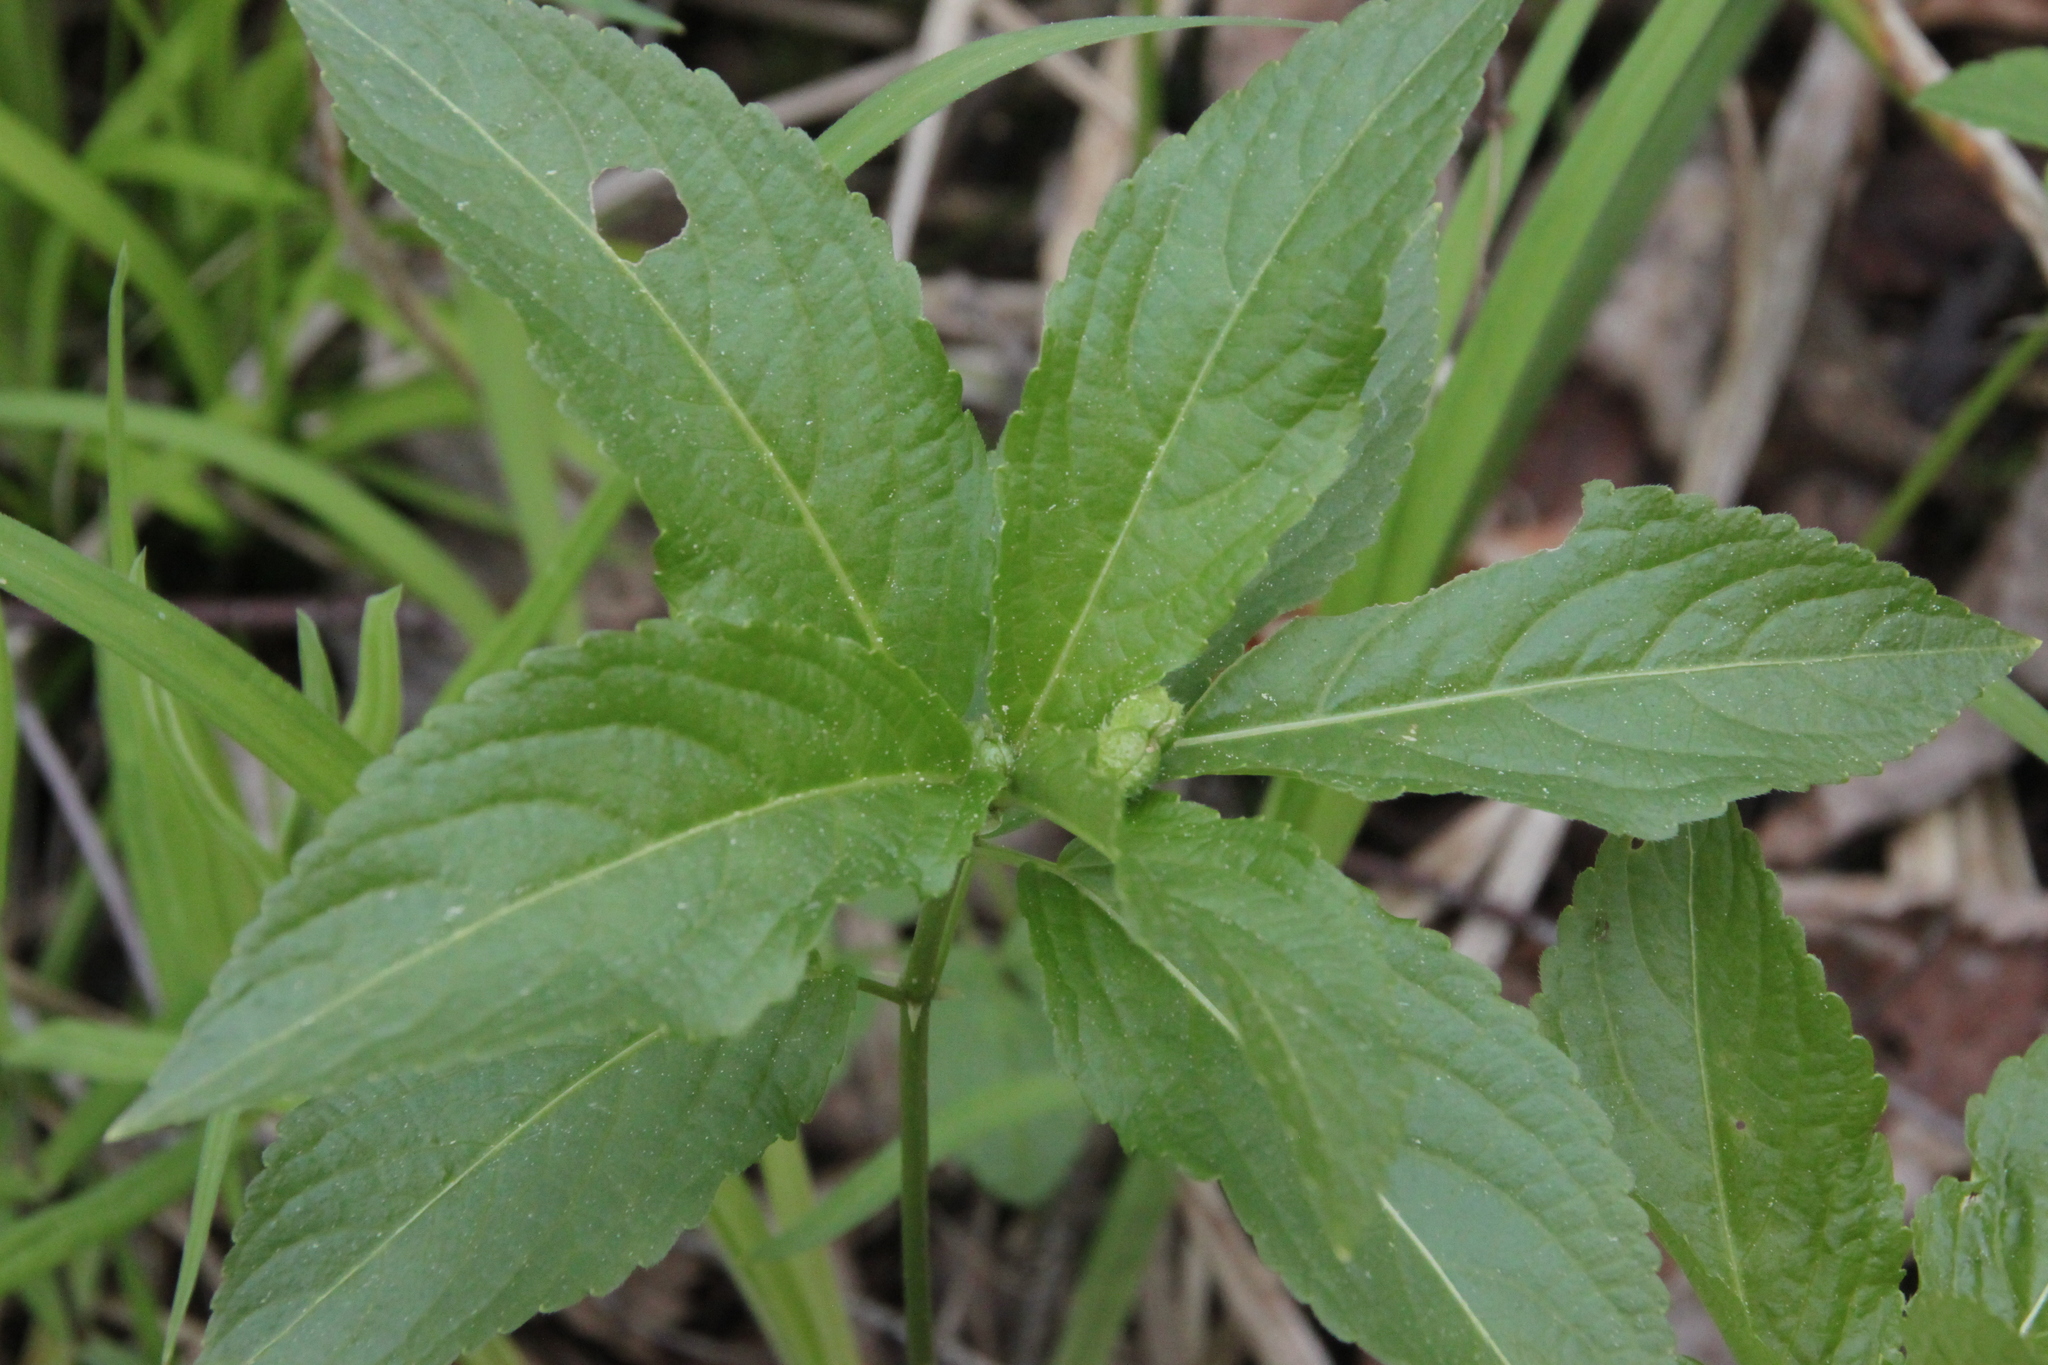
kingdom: Plantae
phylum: Tracheophyta
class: Magnoliopsida
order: Malpighiales
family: Euphorbiaceae
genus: Mercurialis
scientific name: Mercurialis perennis
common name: Dog mercury
